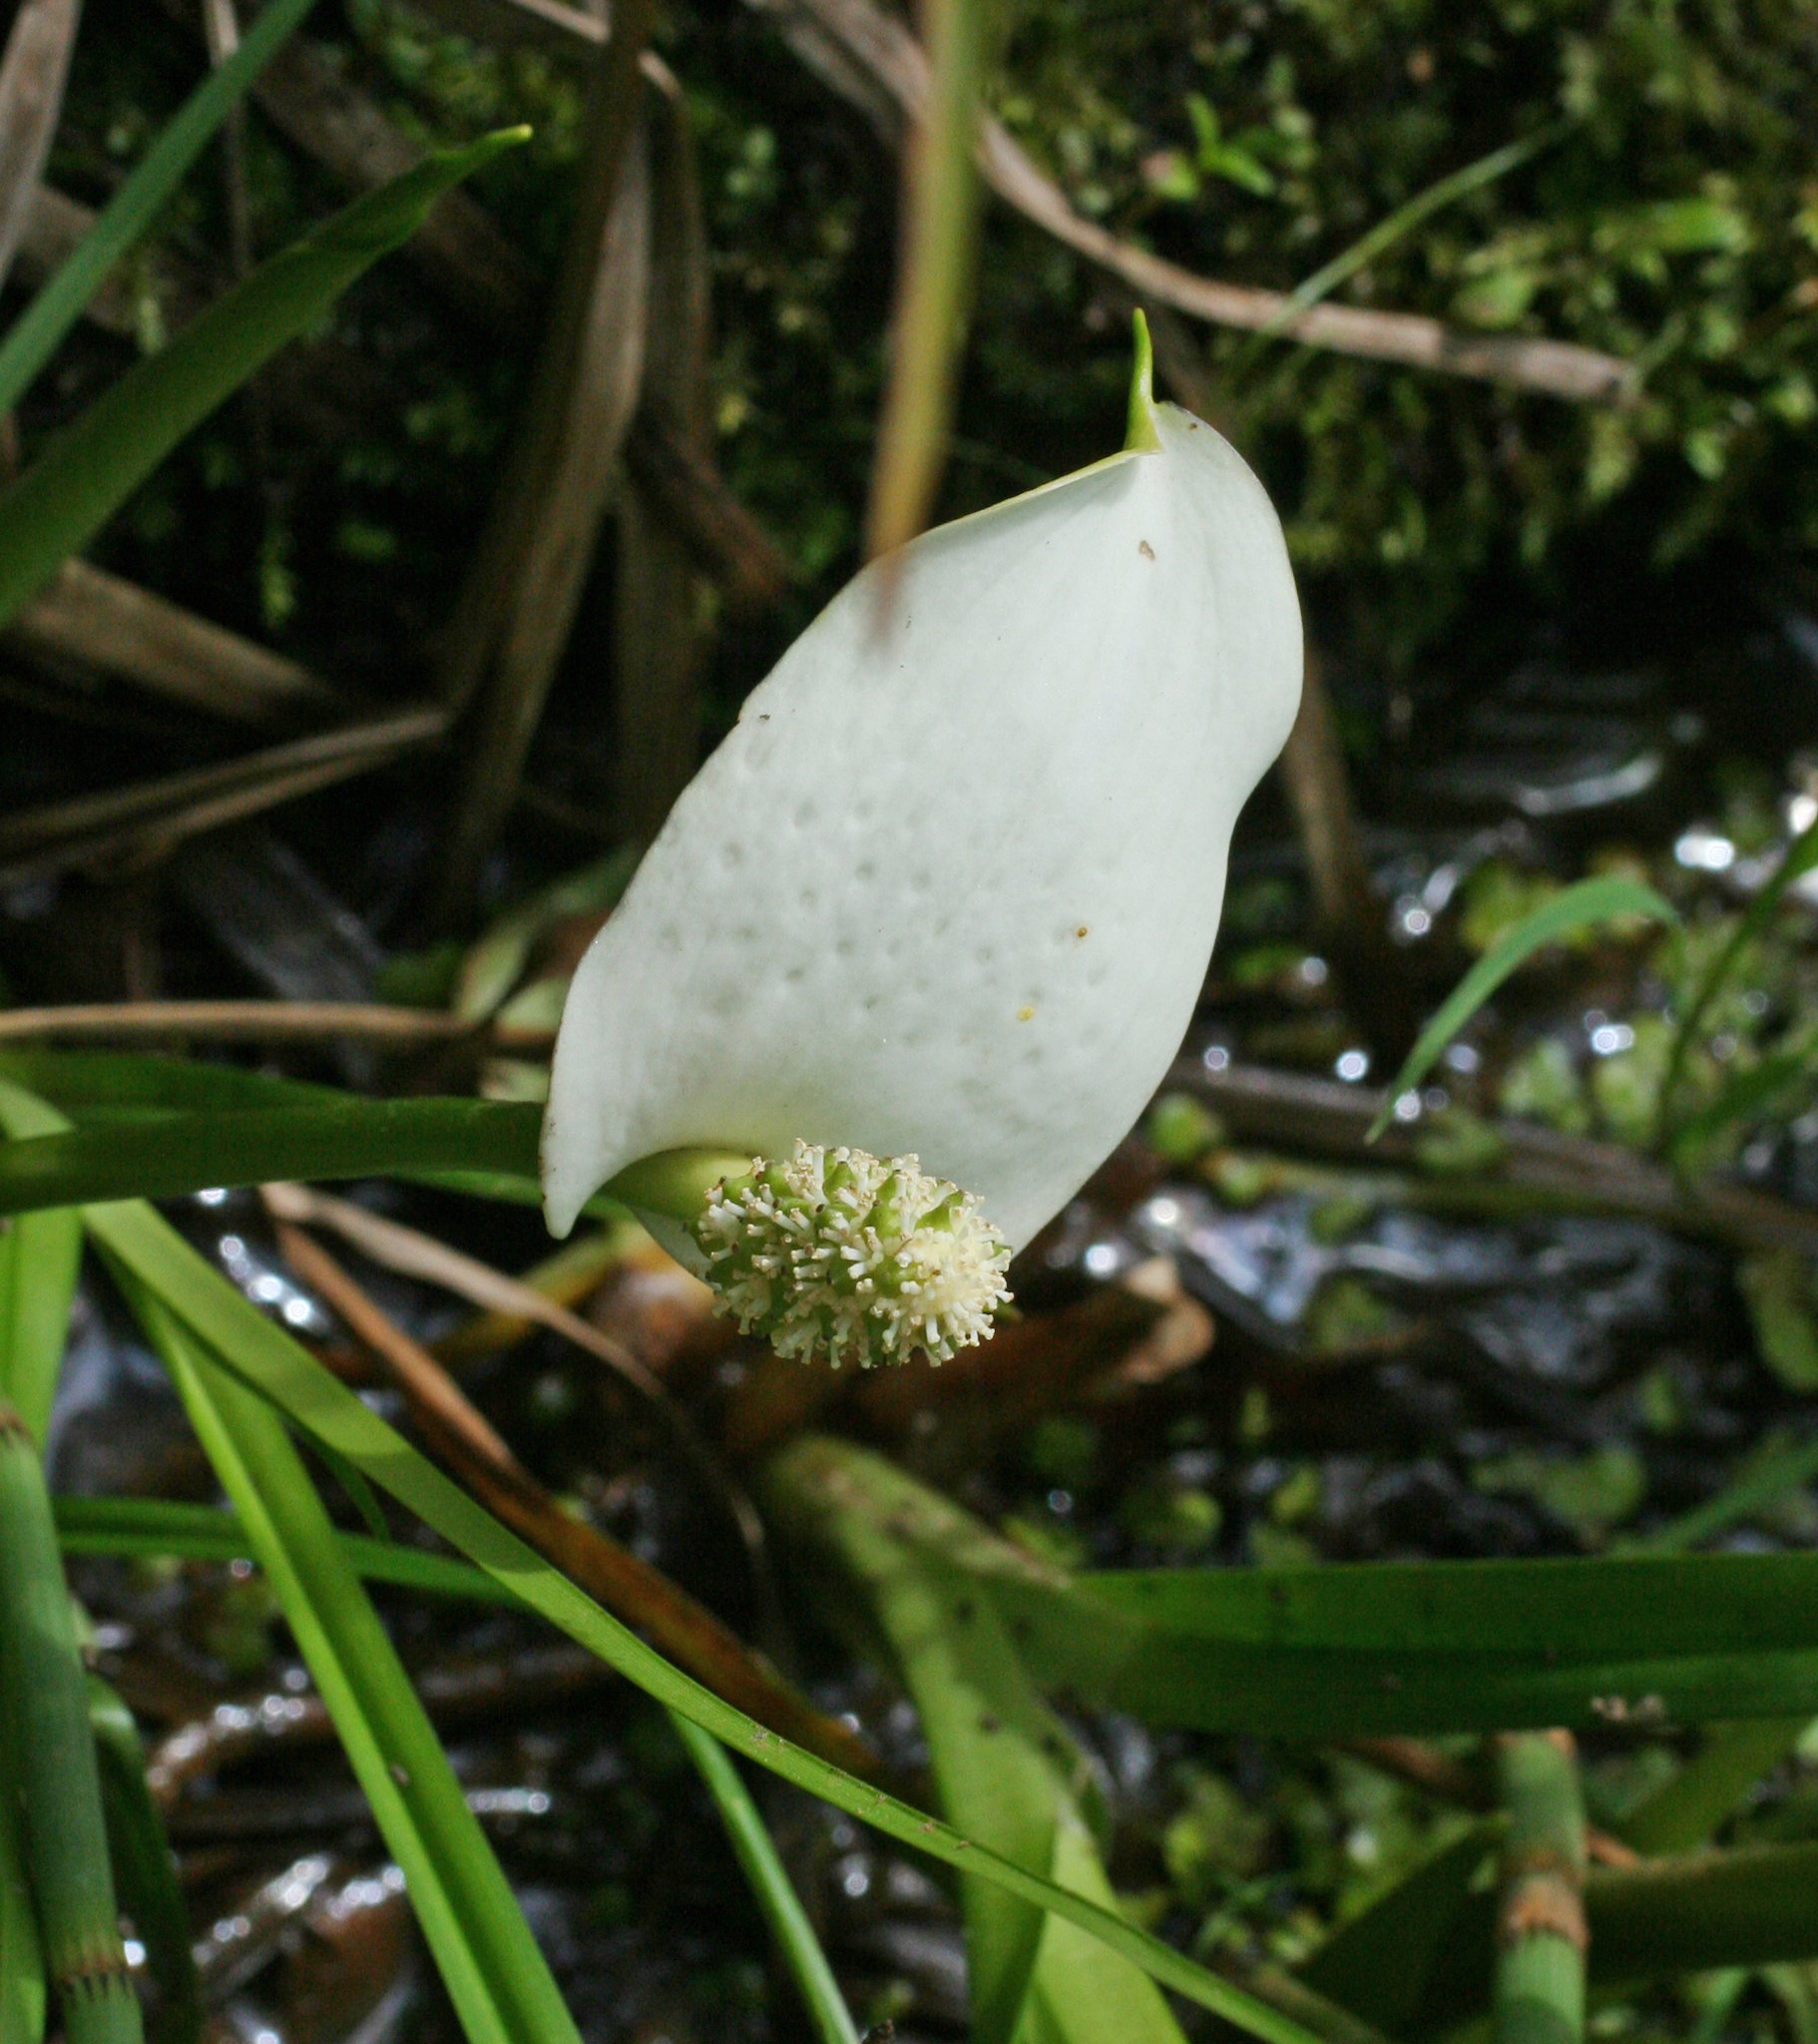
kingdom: Plantae
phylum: Tracheophyta
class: Liliopsida
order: Alismatales
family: Araceae
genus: Calla
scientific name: Calla palustris
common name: Bog arum
